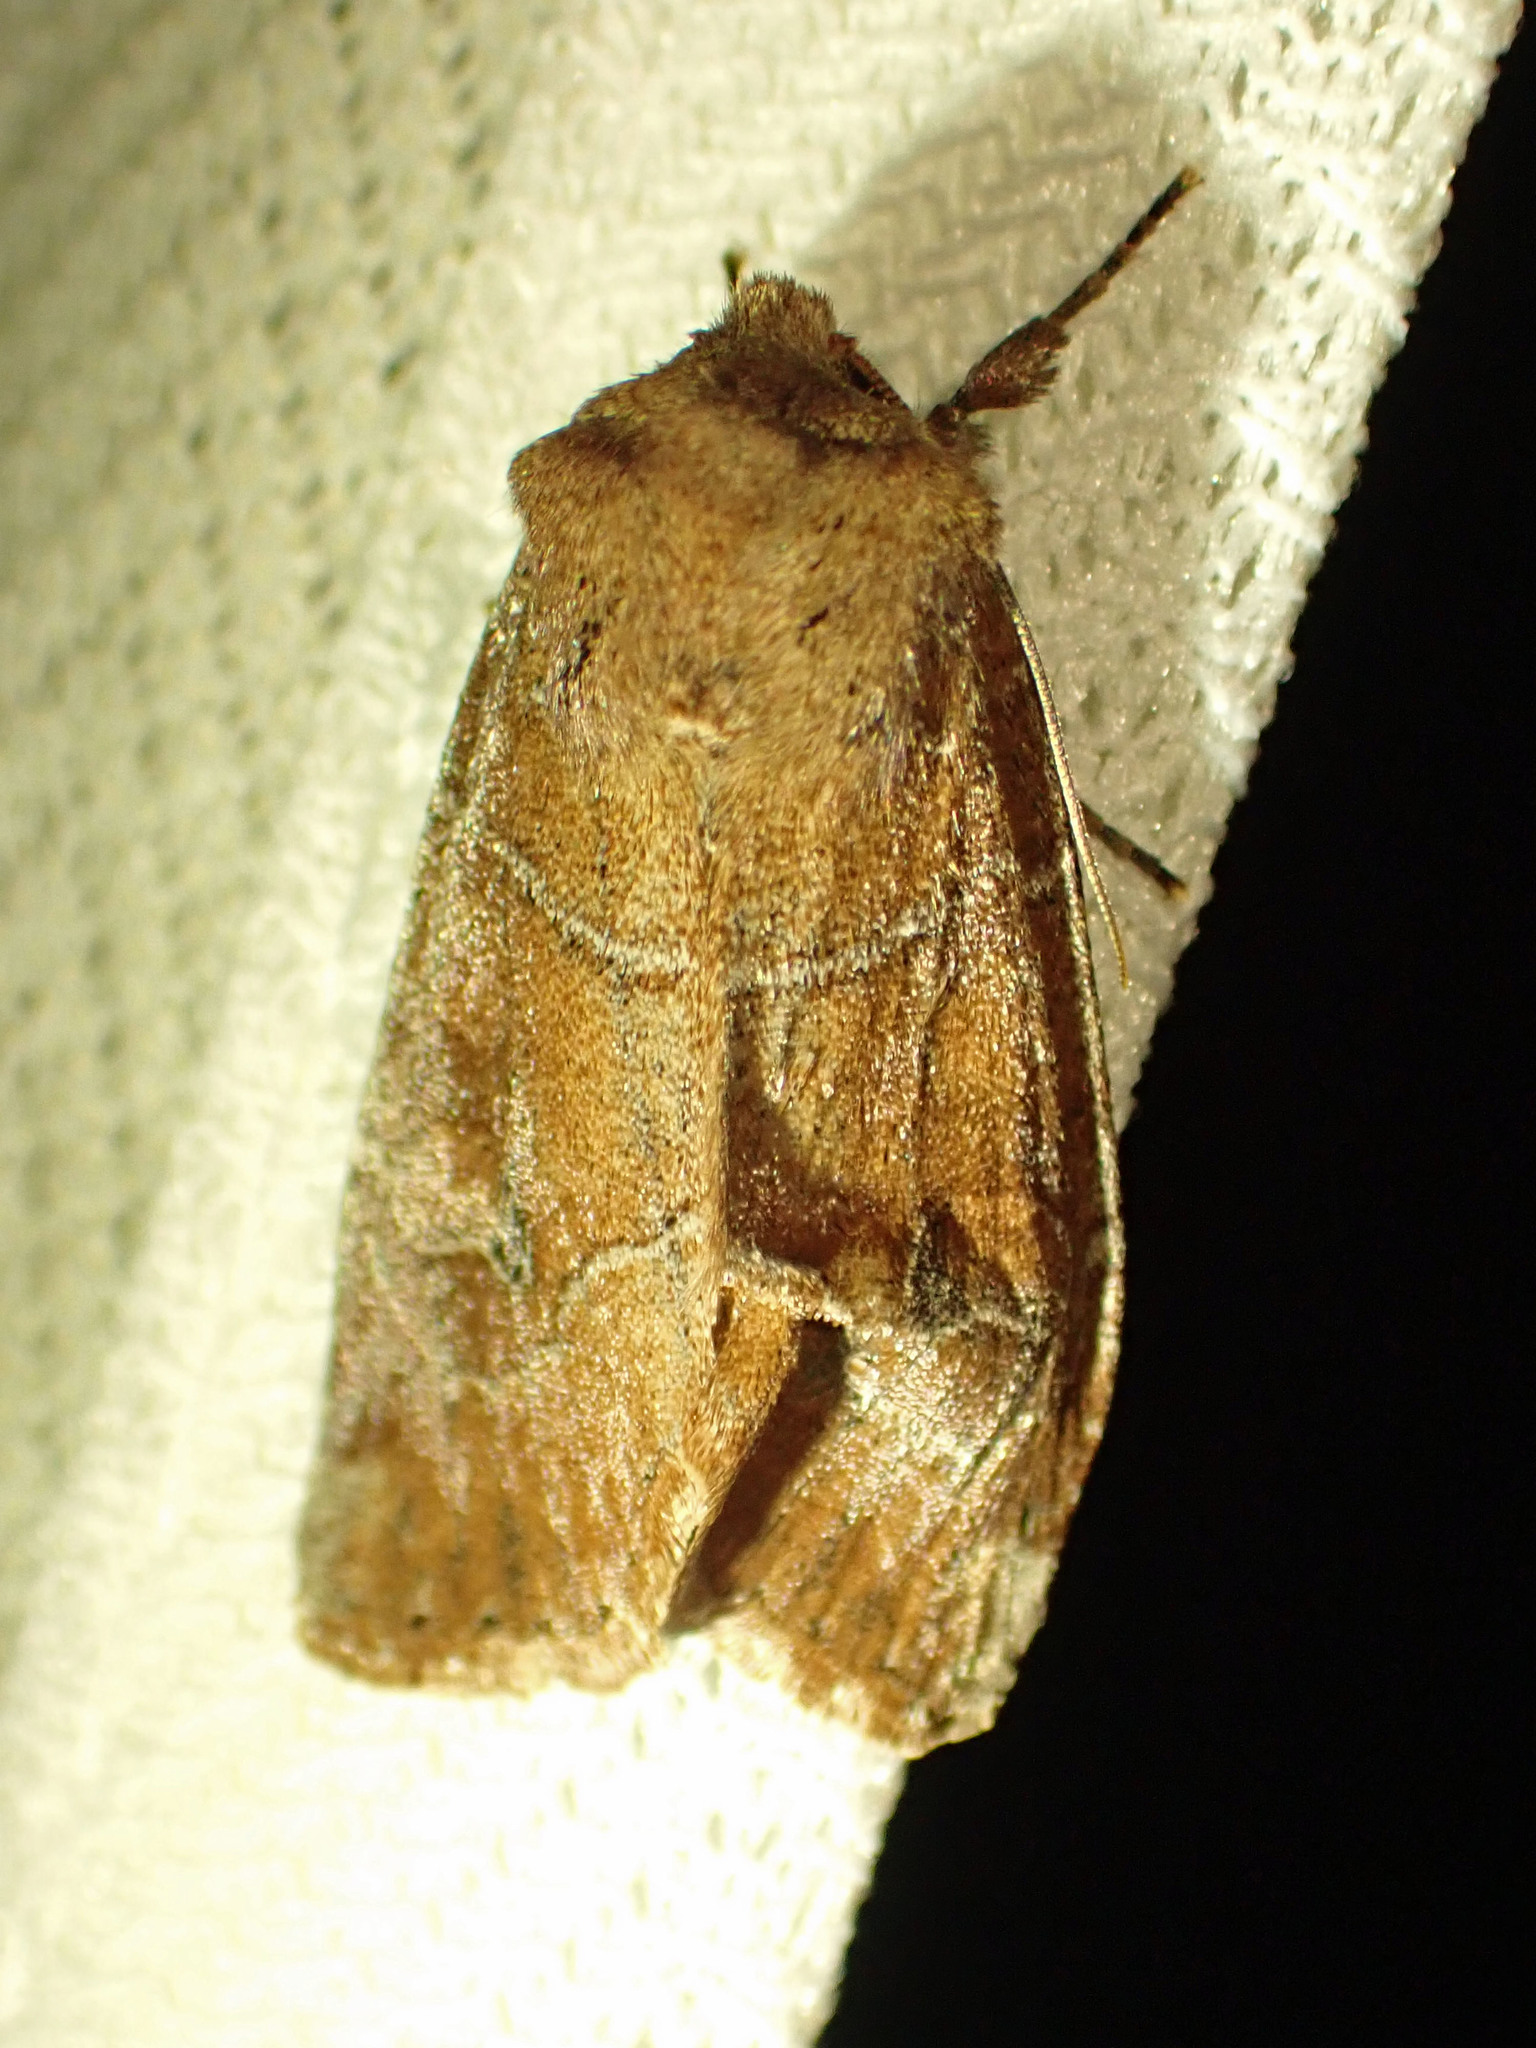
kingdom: Animalia
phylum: Arthropoda
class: Insecta
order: Lepidoptera
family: Noctuidae
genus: Crocigrapha
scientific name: Crocigrapha normani
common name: Norman's quaker
